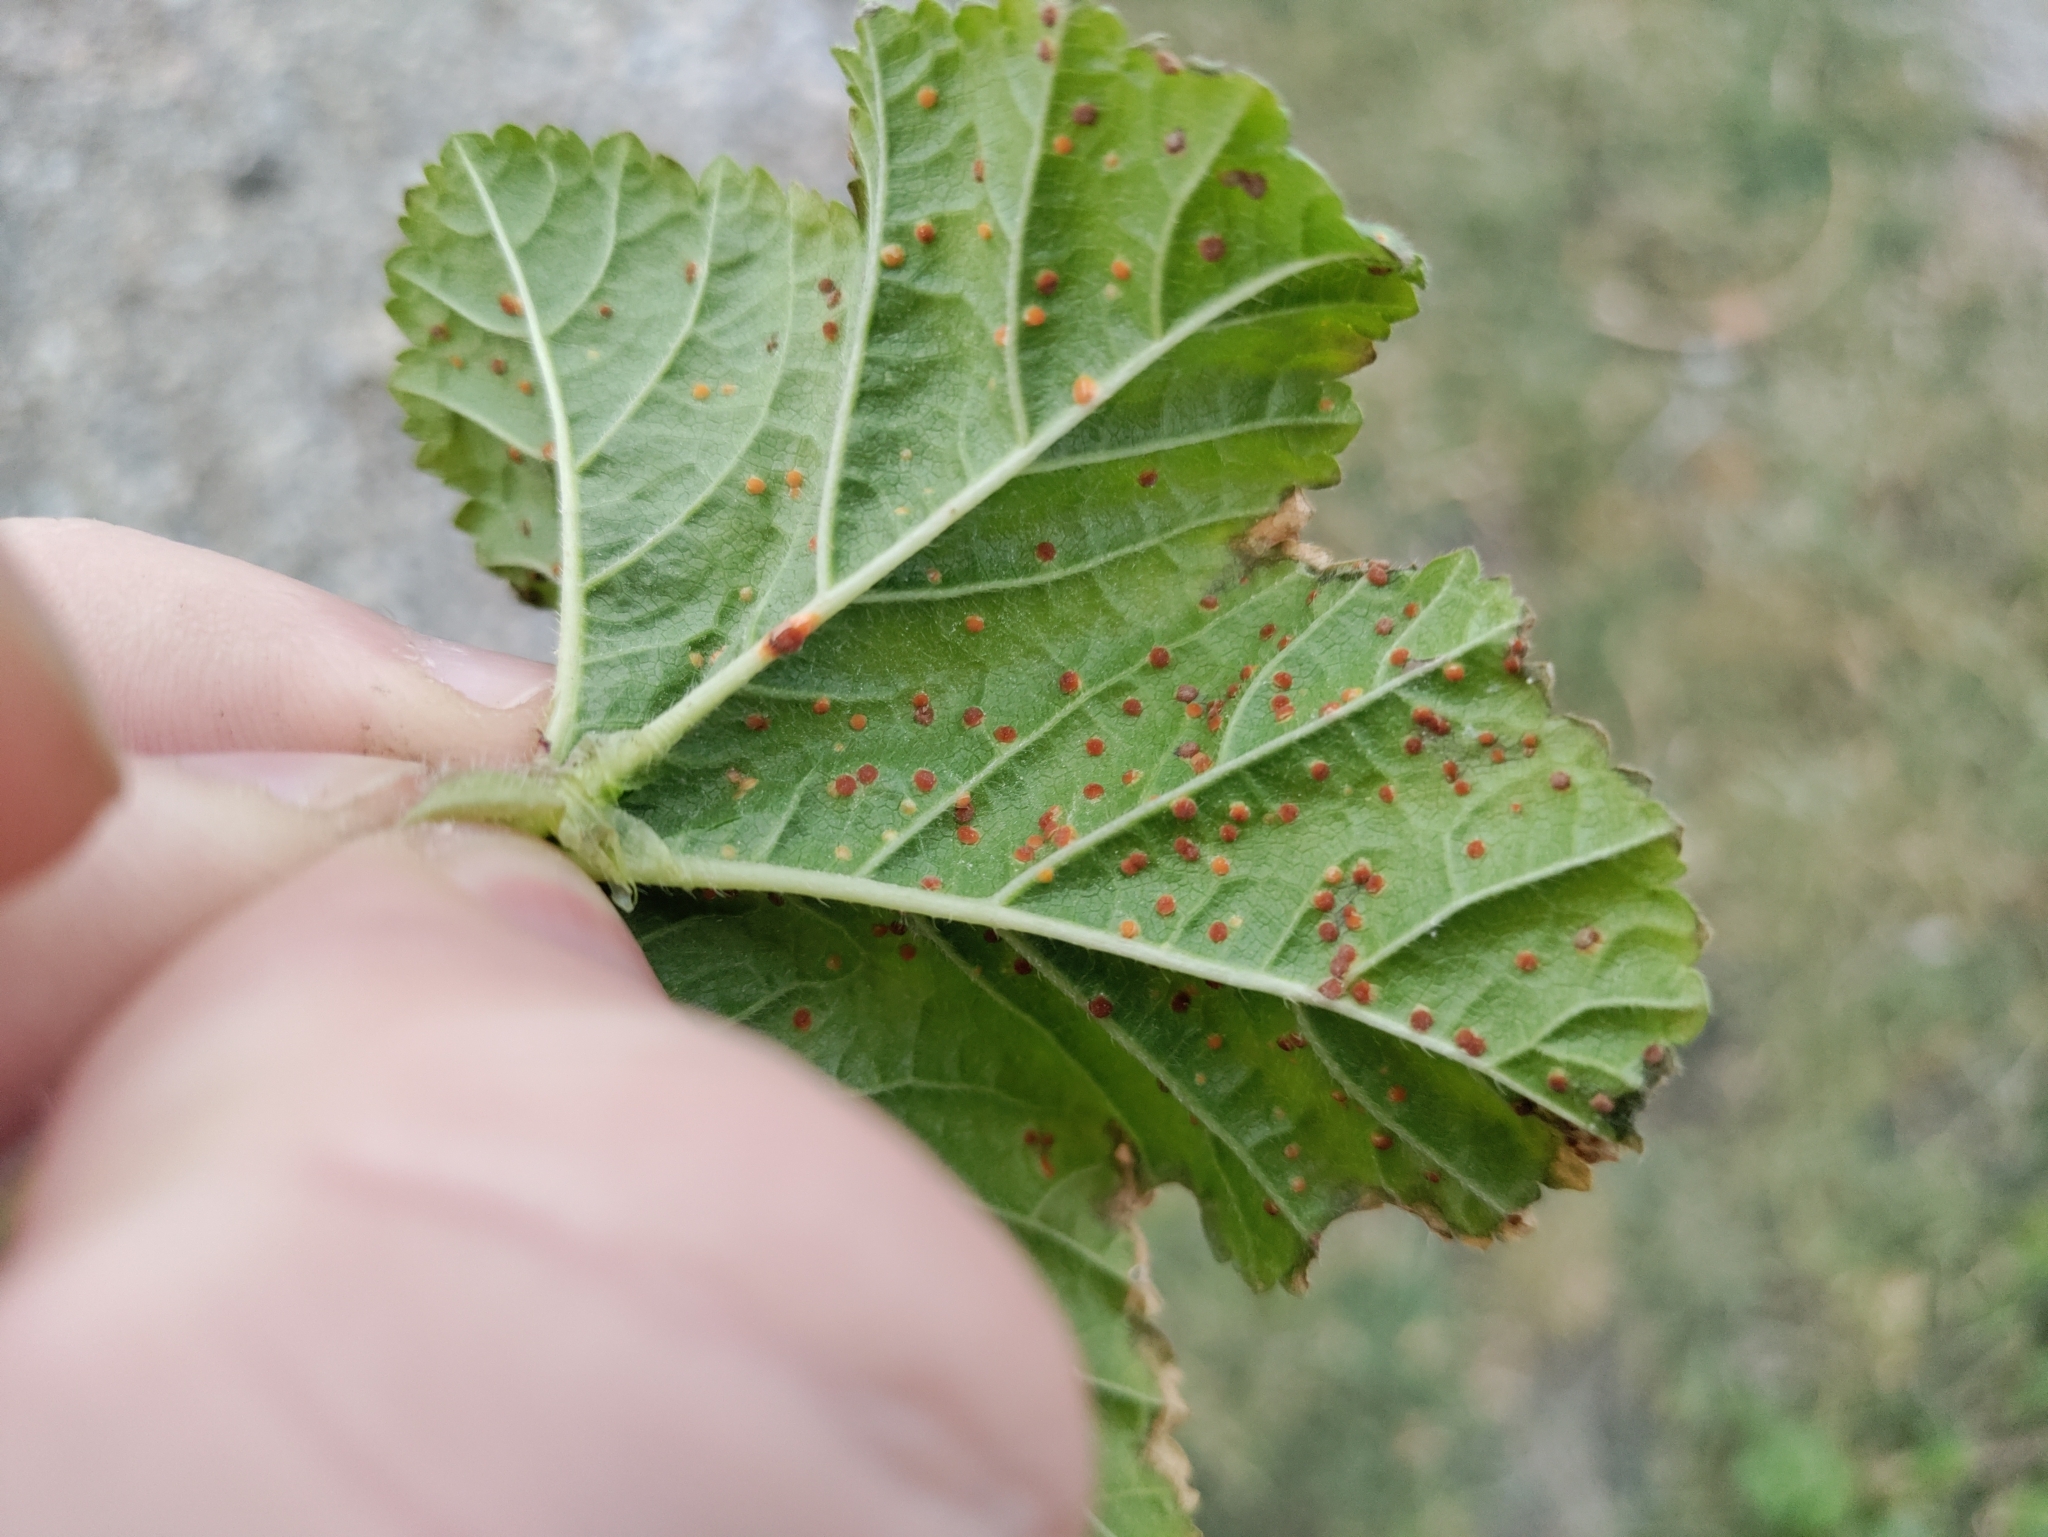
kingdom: Plantae
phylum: Tracheophyta
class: Magnoliopsida
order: Malvales
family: Malvaceae
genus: Malva
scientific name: Malva sylvestris
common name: Common mallow
